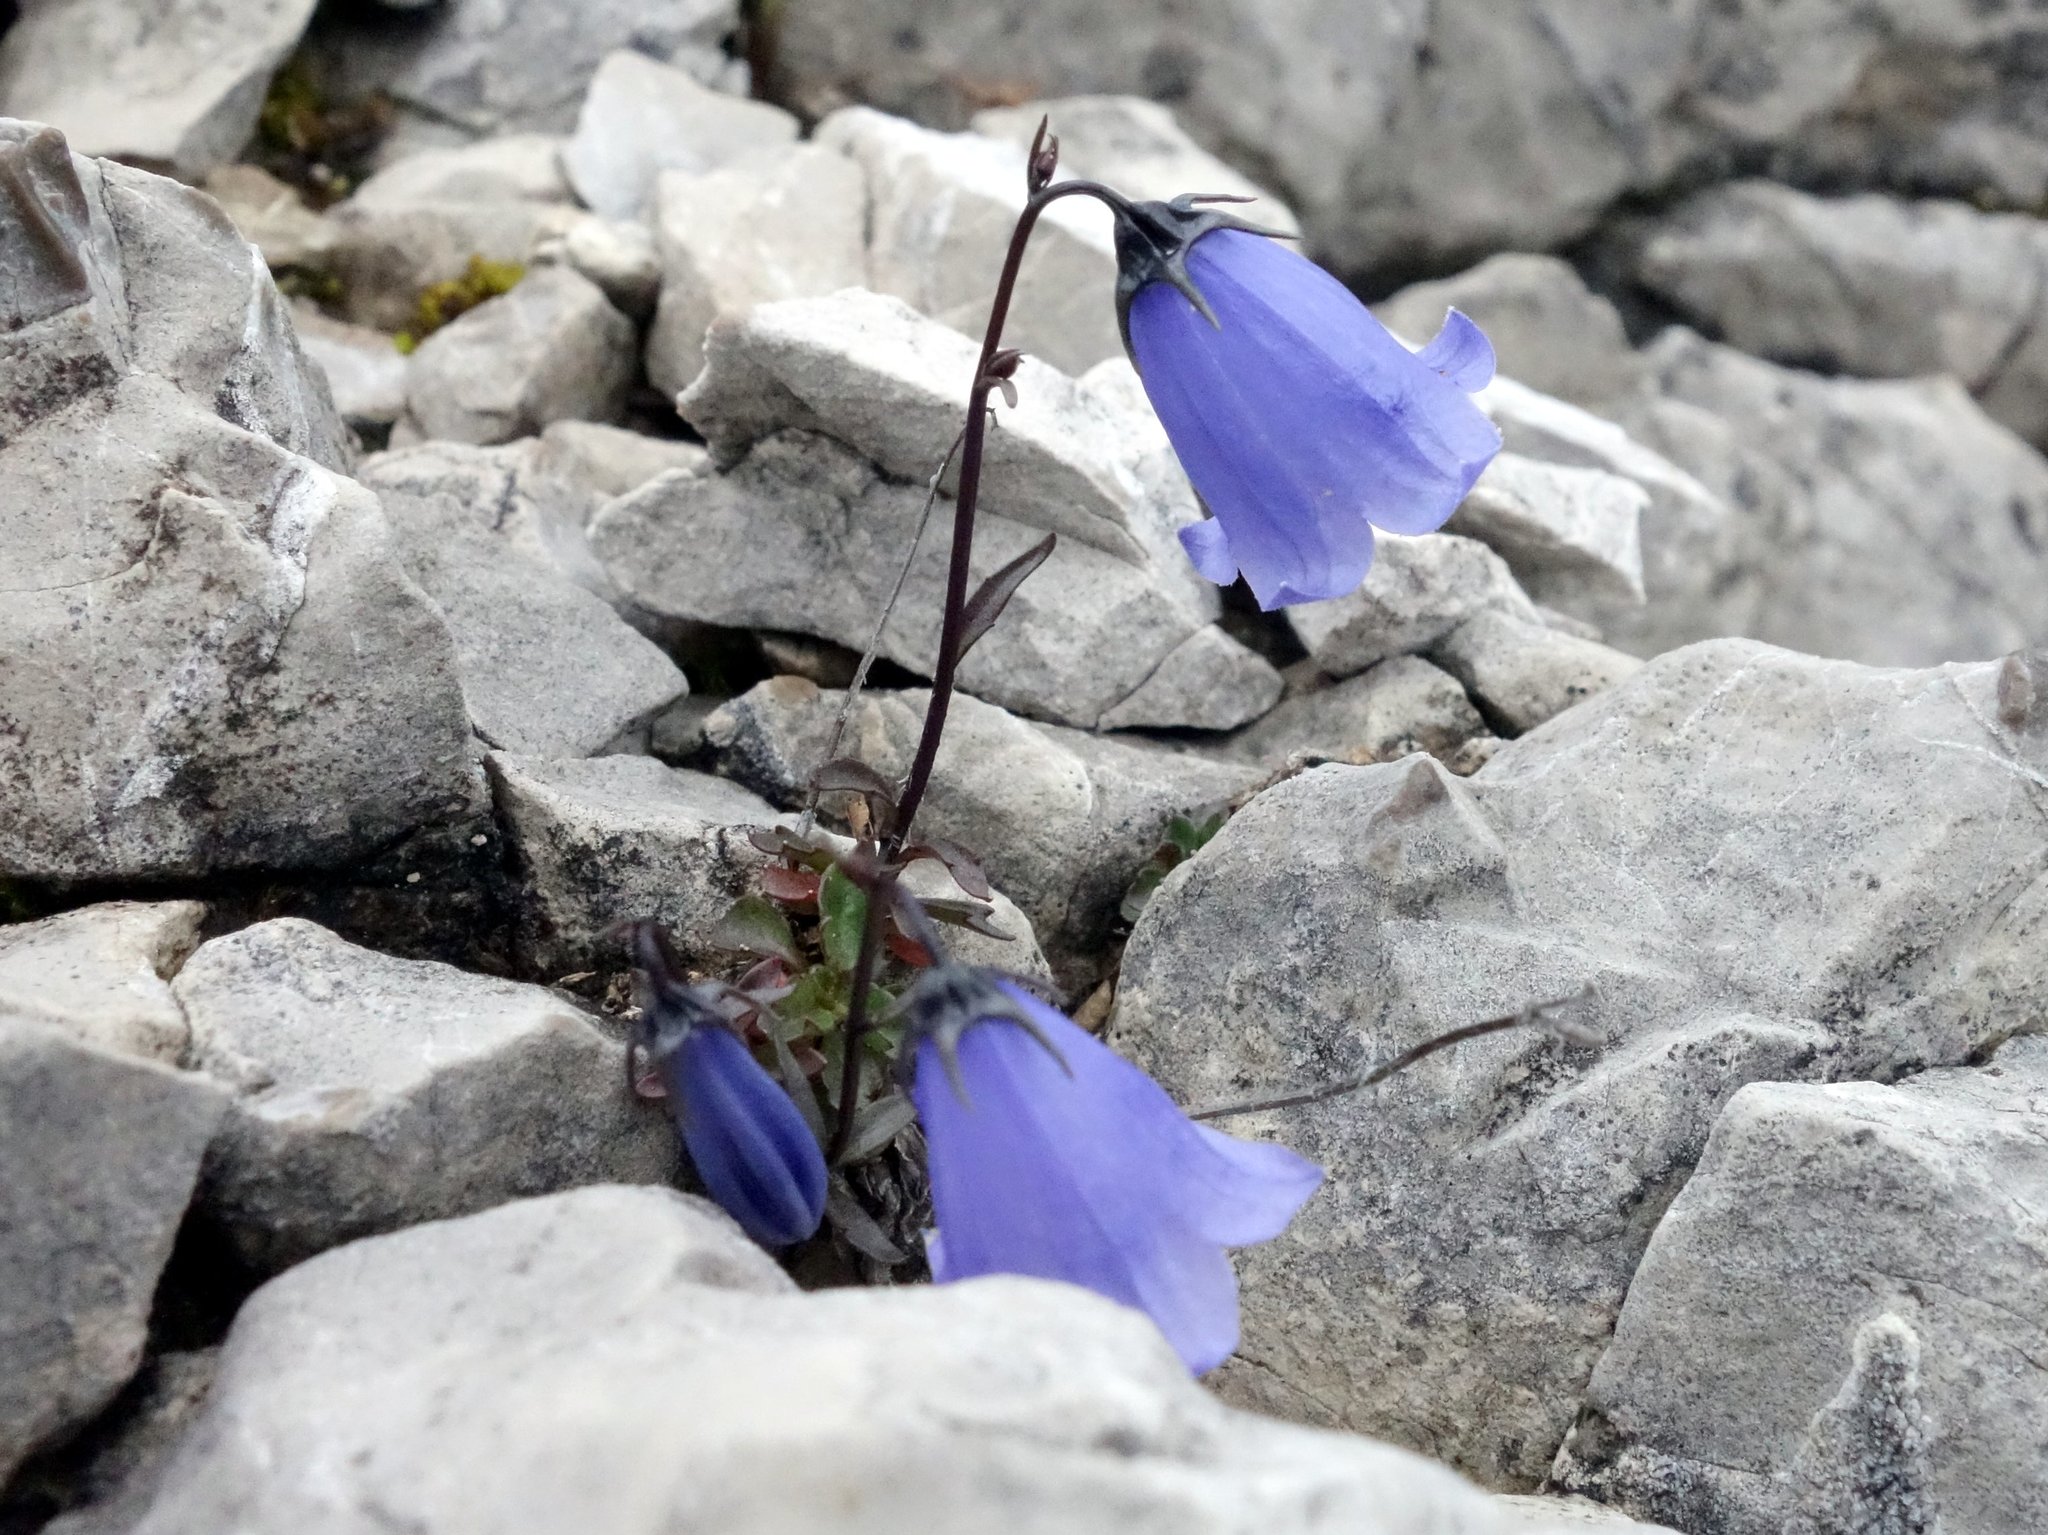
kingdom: Plantae
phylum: Tracheophyta
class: Magnoliopsida
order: Asterales
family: Campanulaceae
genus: Campanula
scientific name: Campanula cochleariifolia
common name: Fairies'-thimbles
